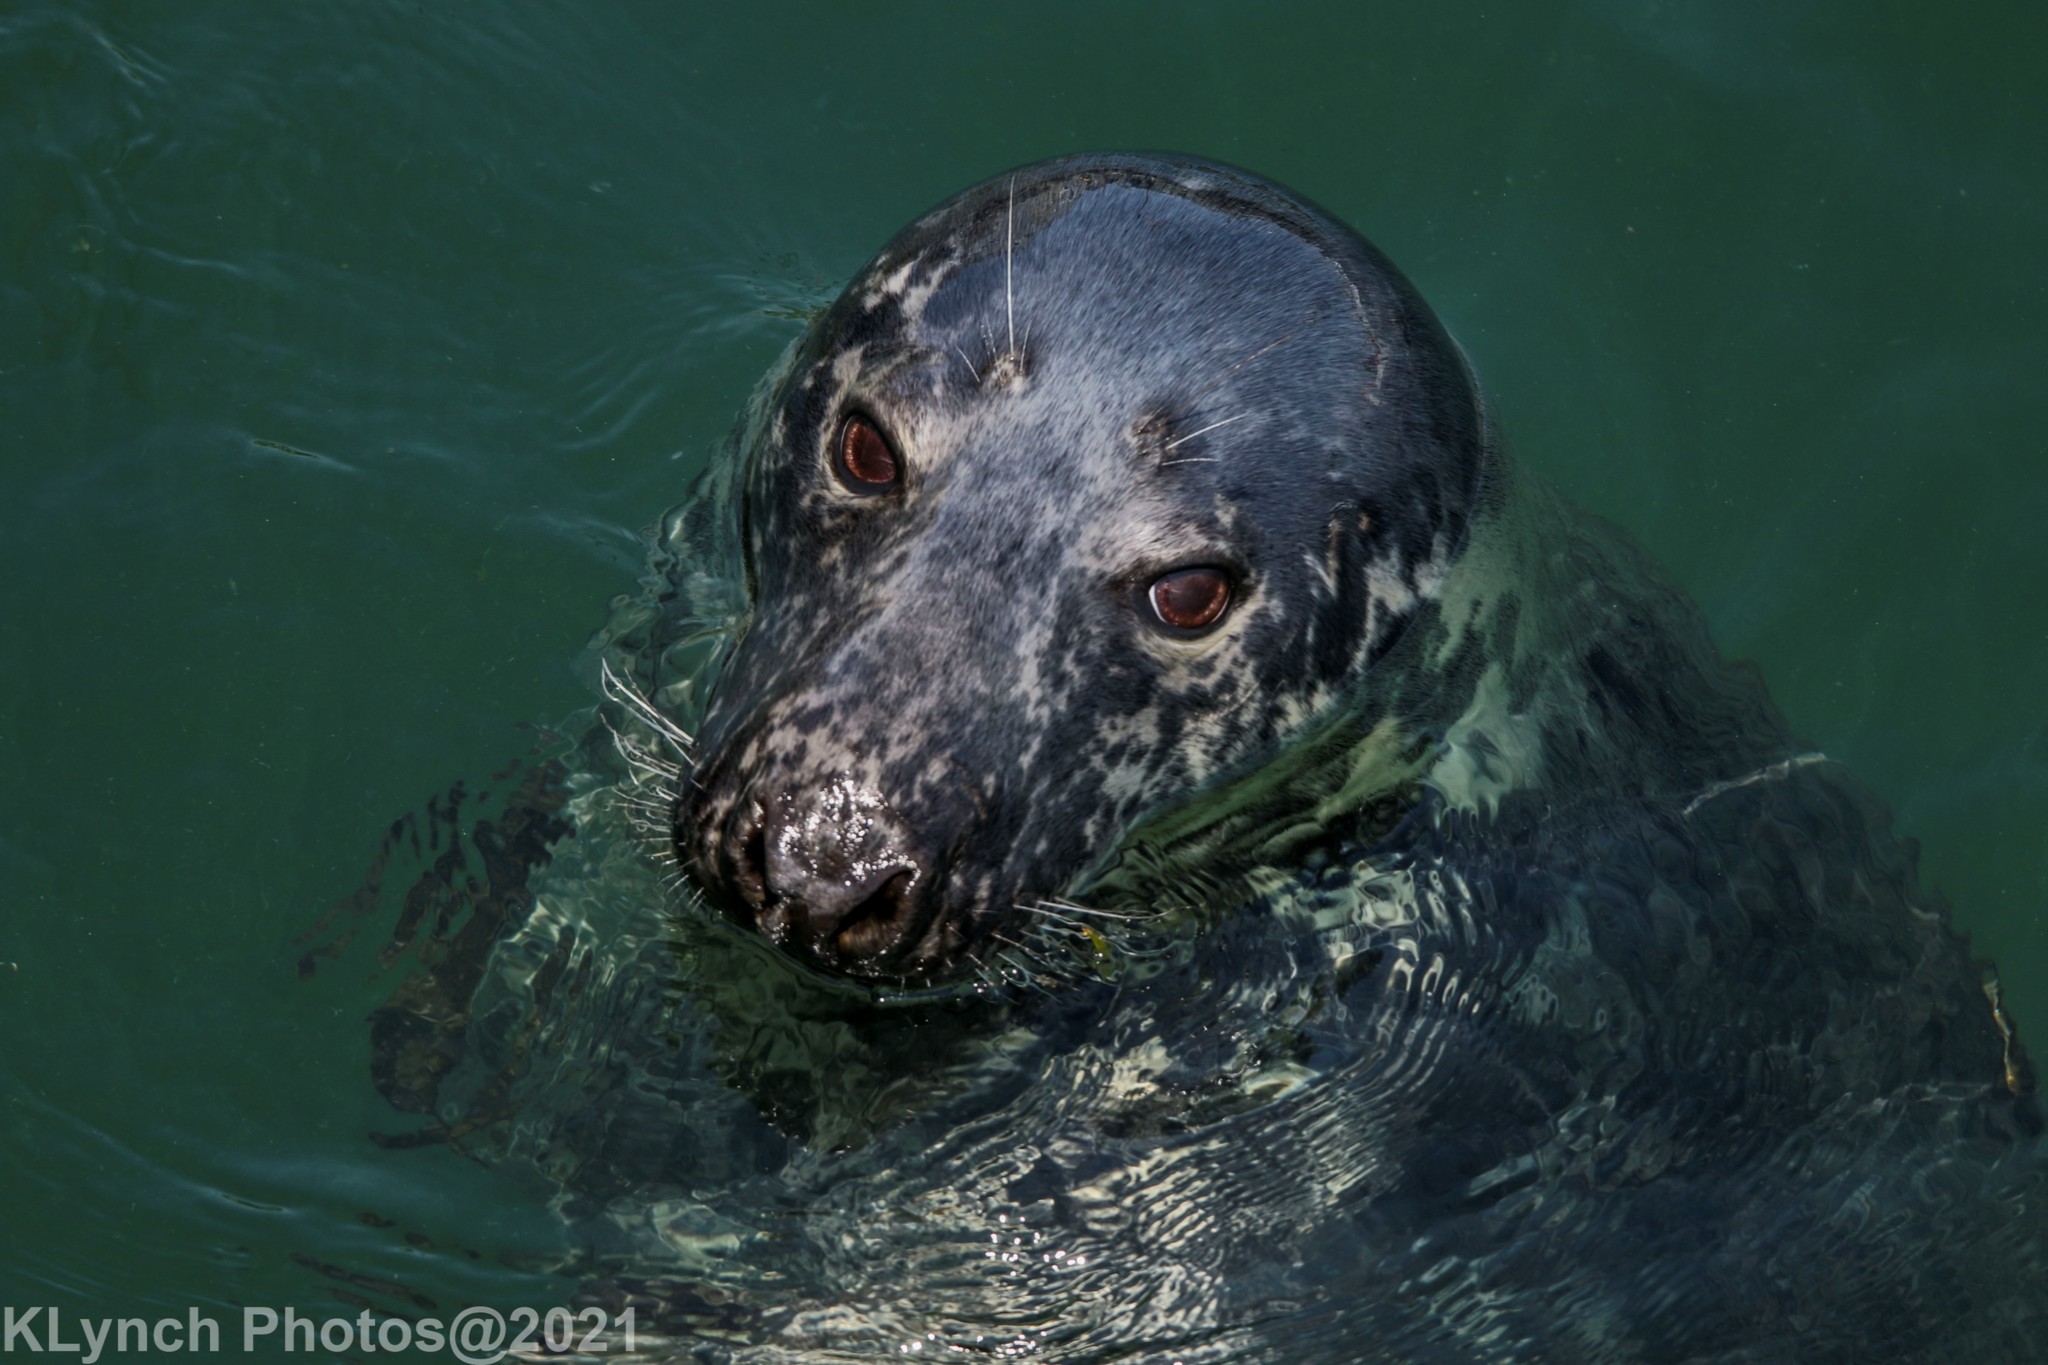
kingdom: Animalia
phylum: Chordata
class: Mammalia
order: Carnivora
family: Phocidae
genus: Halichoerus
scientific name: Halichoerus grypus
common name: Grey seal
